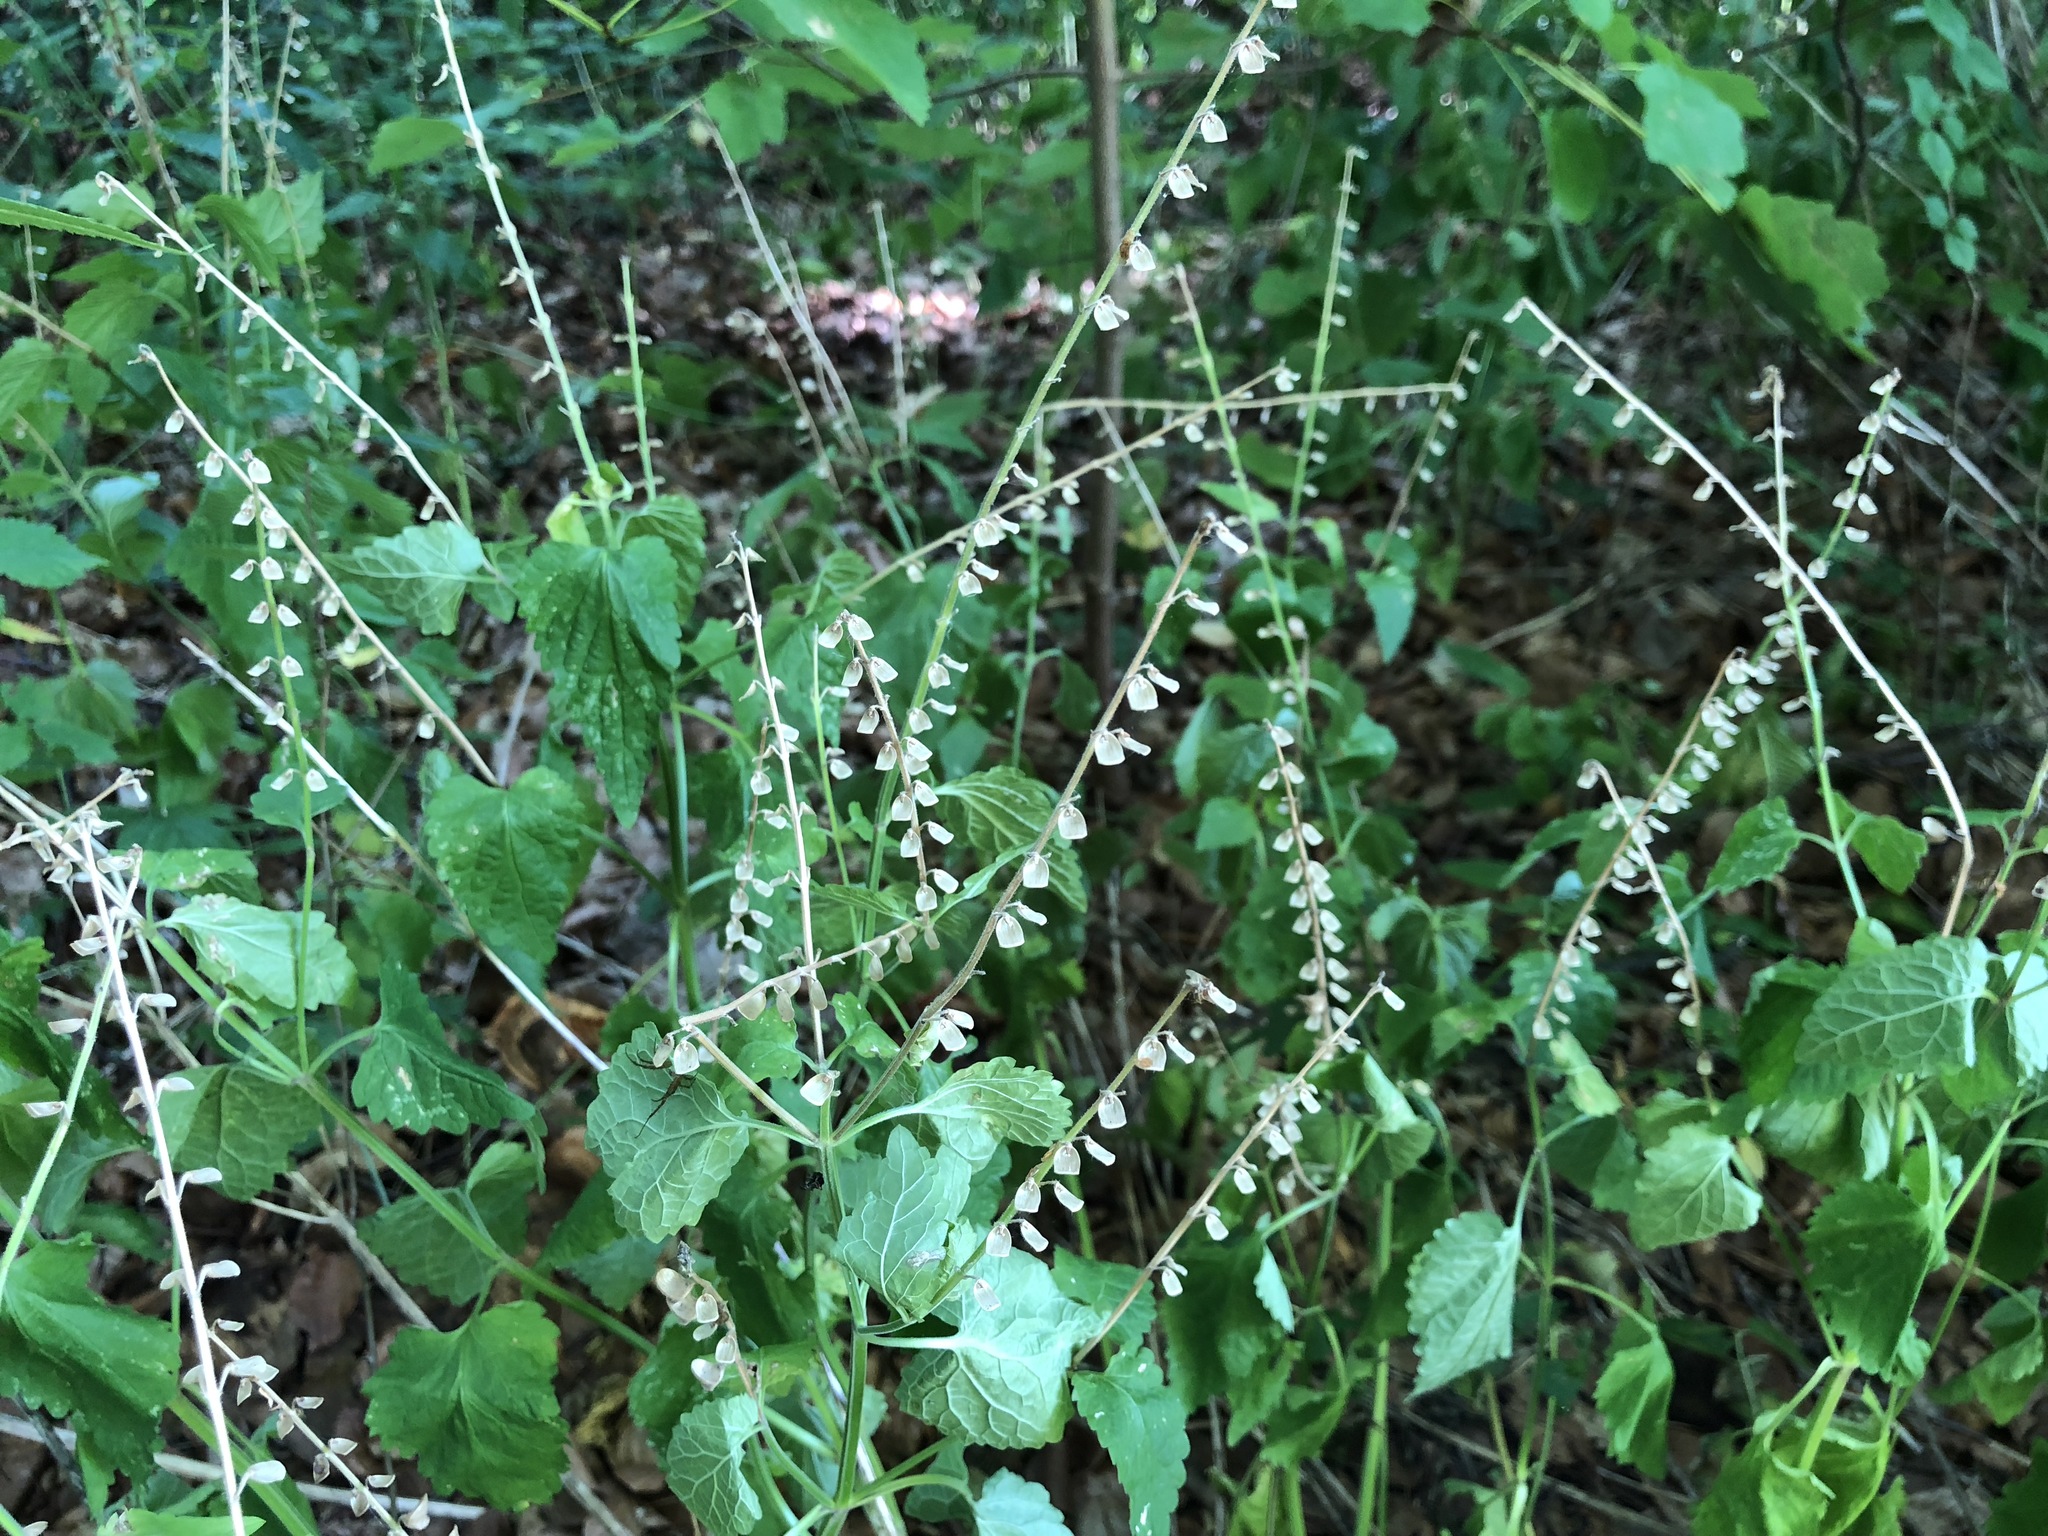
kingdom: Plantae
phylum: Tracheophyta
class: Magnoliopsida
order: Lamiales
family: Lamiaceae
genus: Scutellaria
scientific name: Scutellaria altissima
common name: Somerset skullcap
